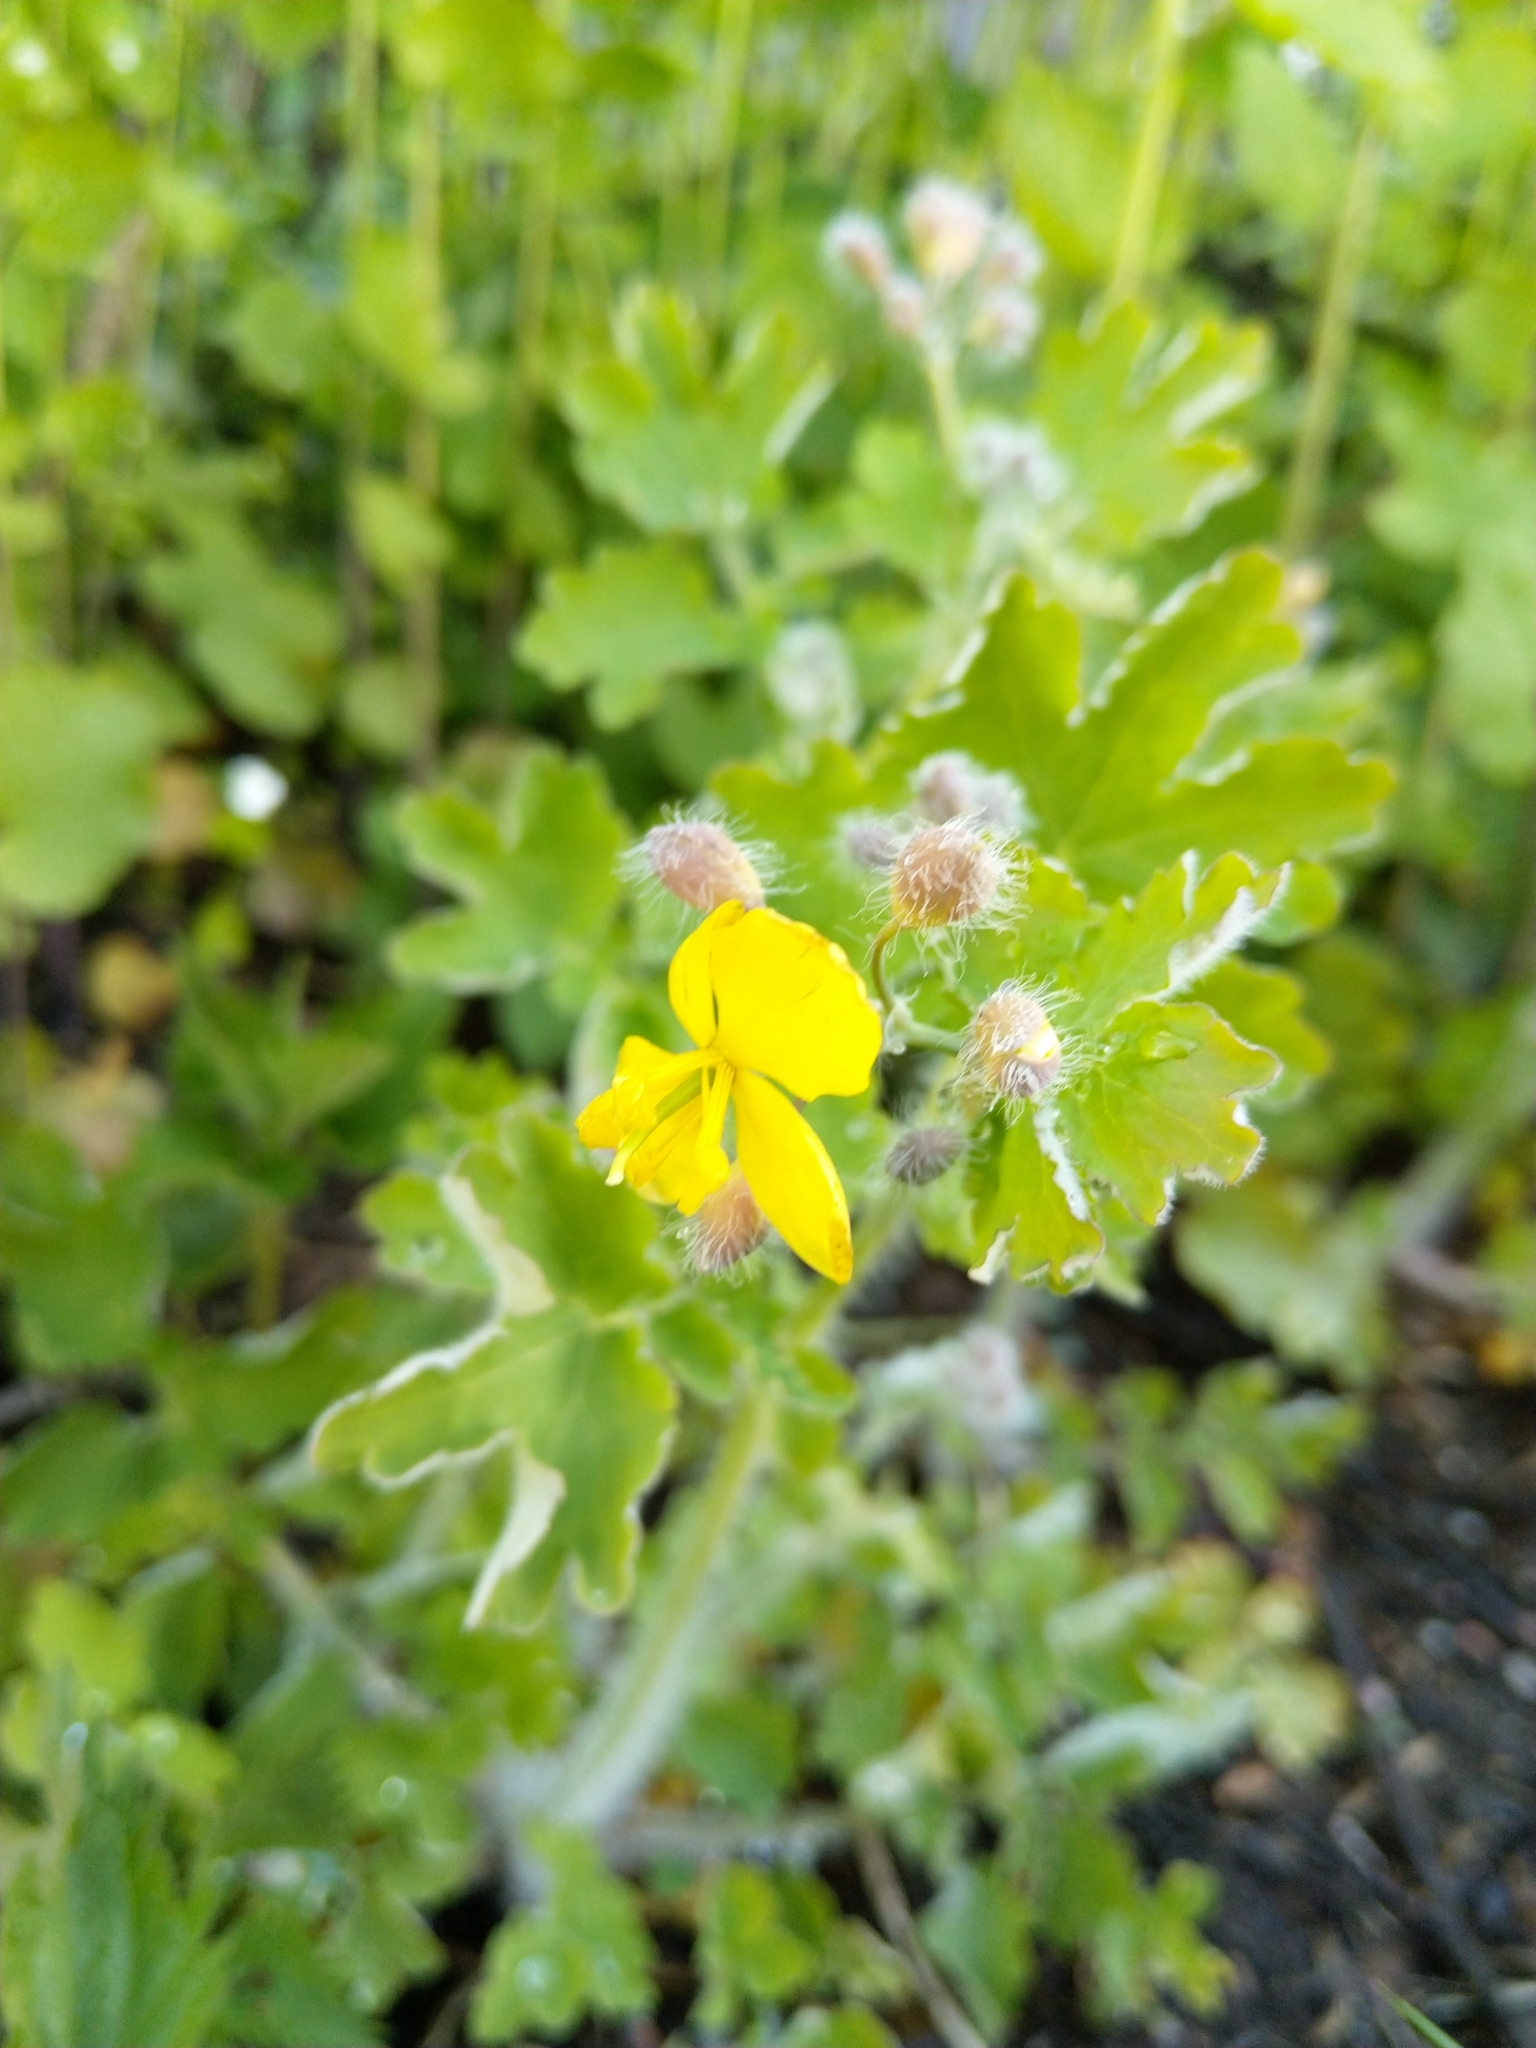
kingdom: Plantae
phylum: Tracheophyta
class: Magnoliopsida
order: Ranunculales
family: Papaveraceae
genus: Chelidonium
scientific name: Chelidonium majus
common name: Greater celandine
